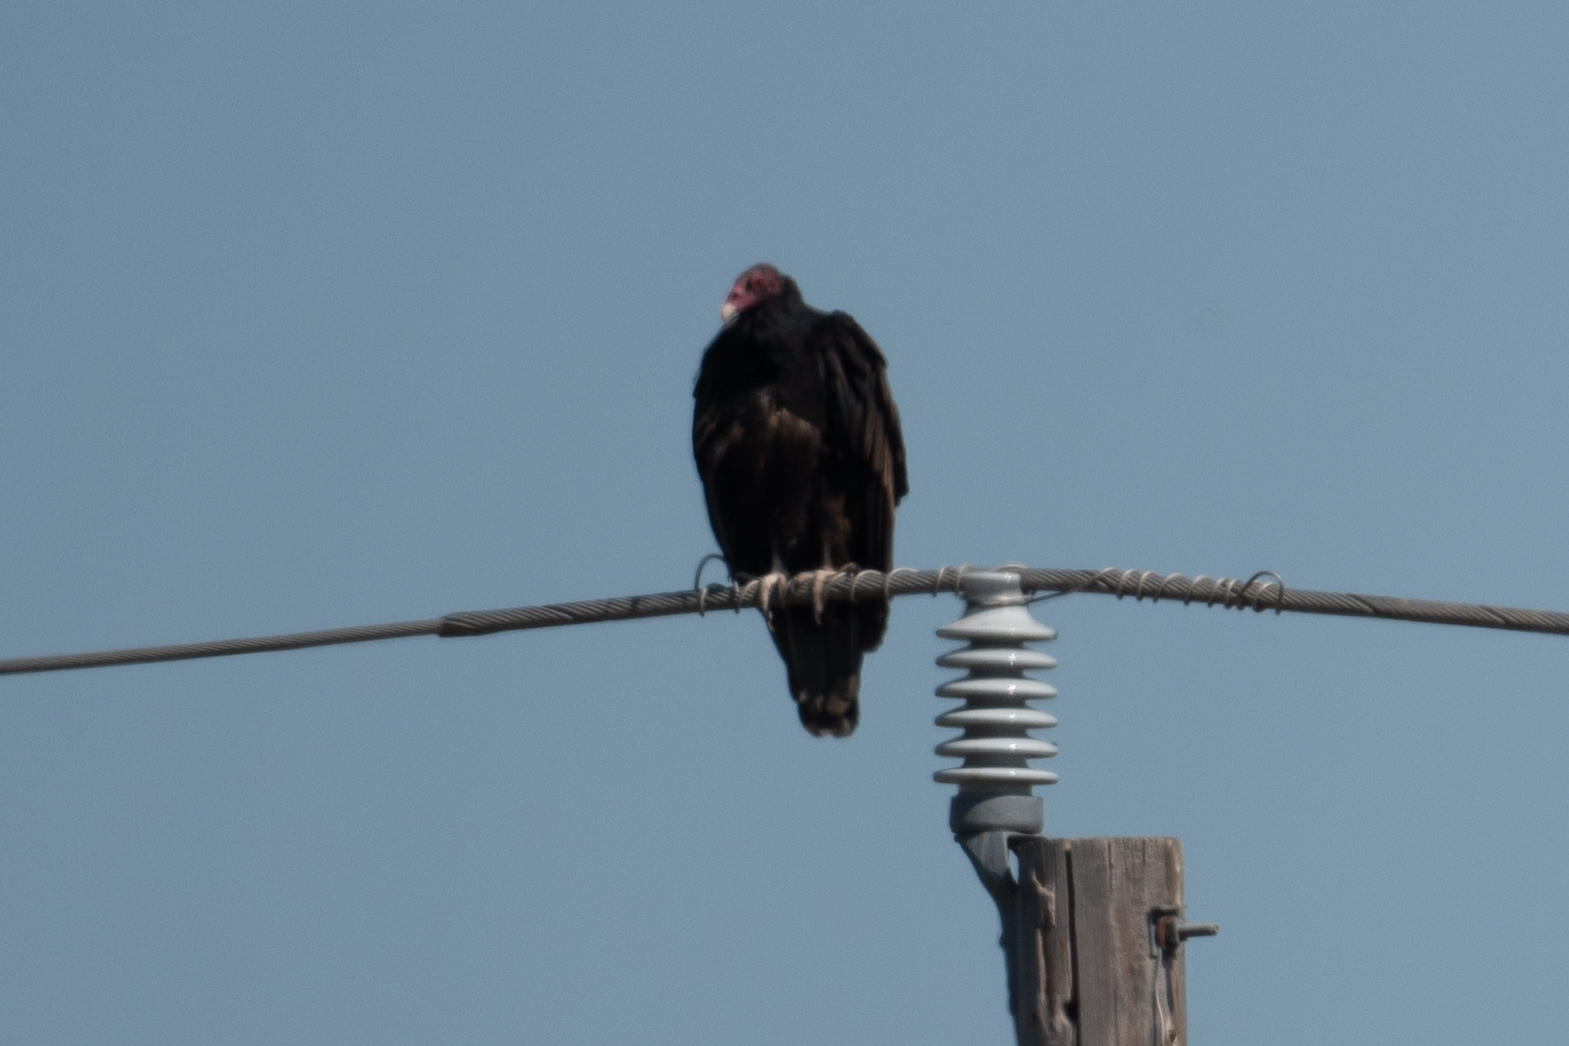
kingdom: Animalia
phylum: Chordata
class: Aves
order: Accipitriformes
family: Cathartidae
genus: Cathartes
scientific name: Cathartes aura
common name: Turkey vulture
